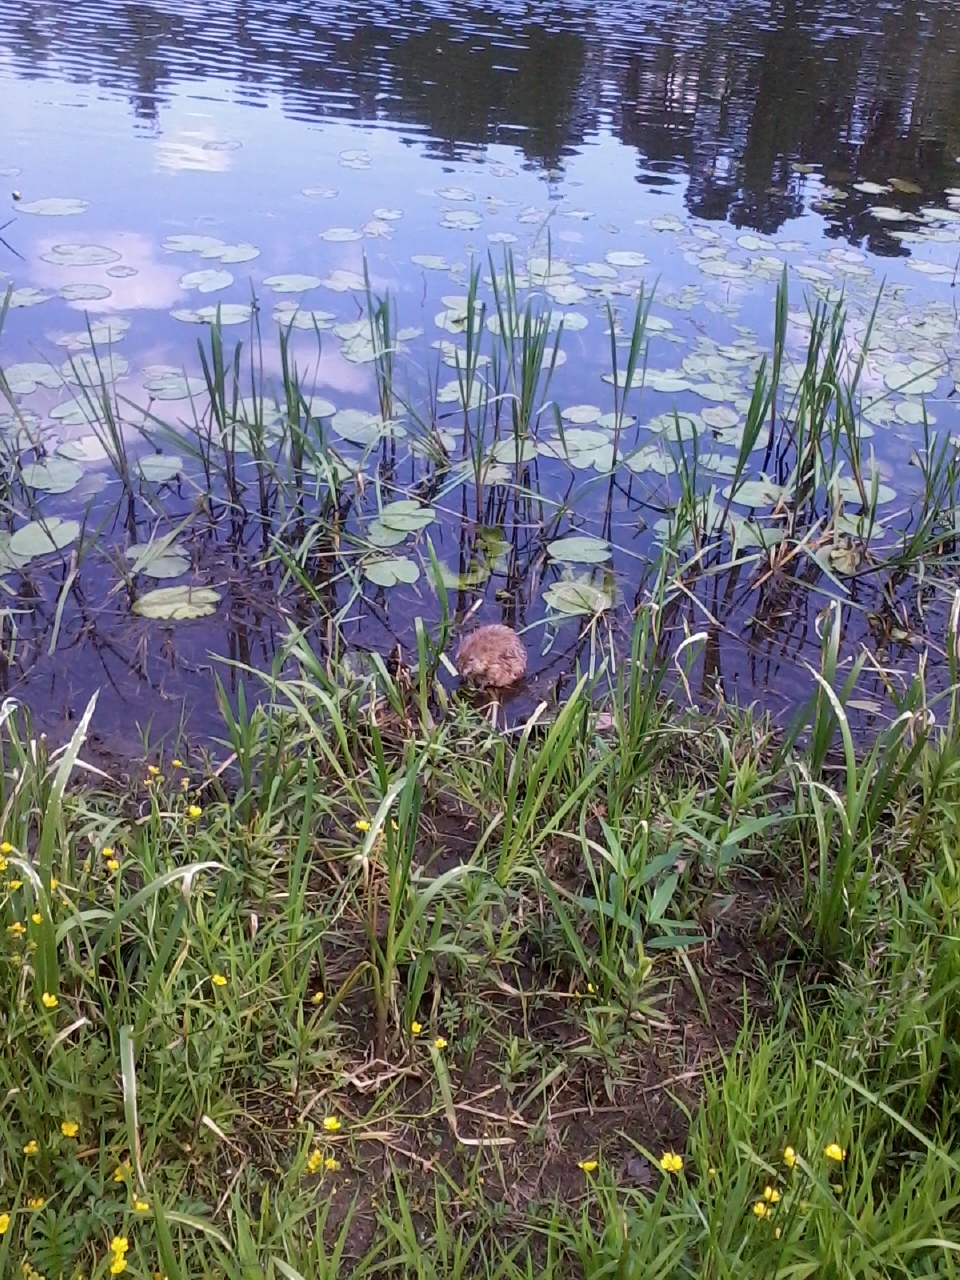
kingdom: Animalia
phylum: Chordata
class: Mammalia
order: Rodentia
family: Cricetidae
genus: Ondatra
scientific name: Ondatra zibethicus
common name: Muskrat
